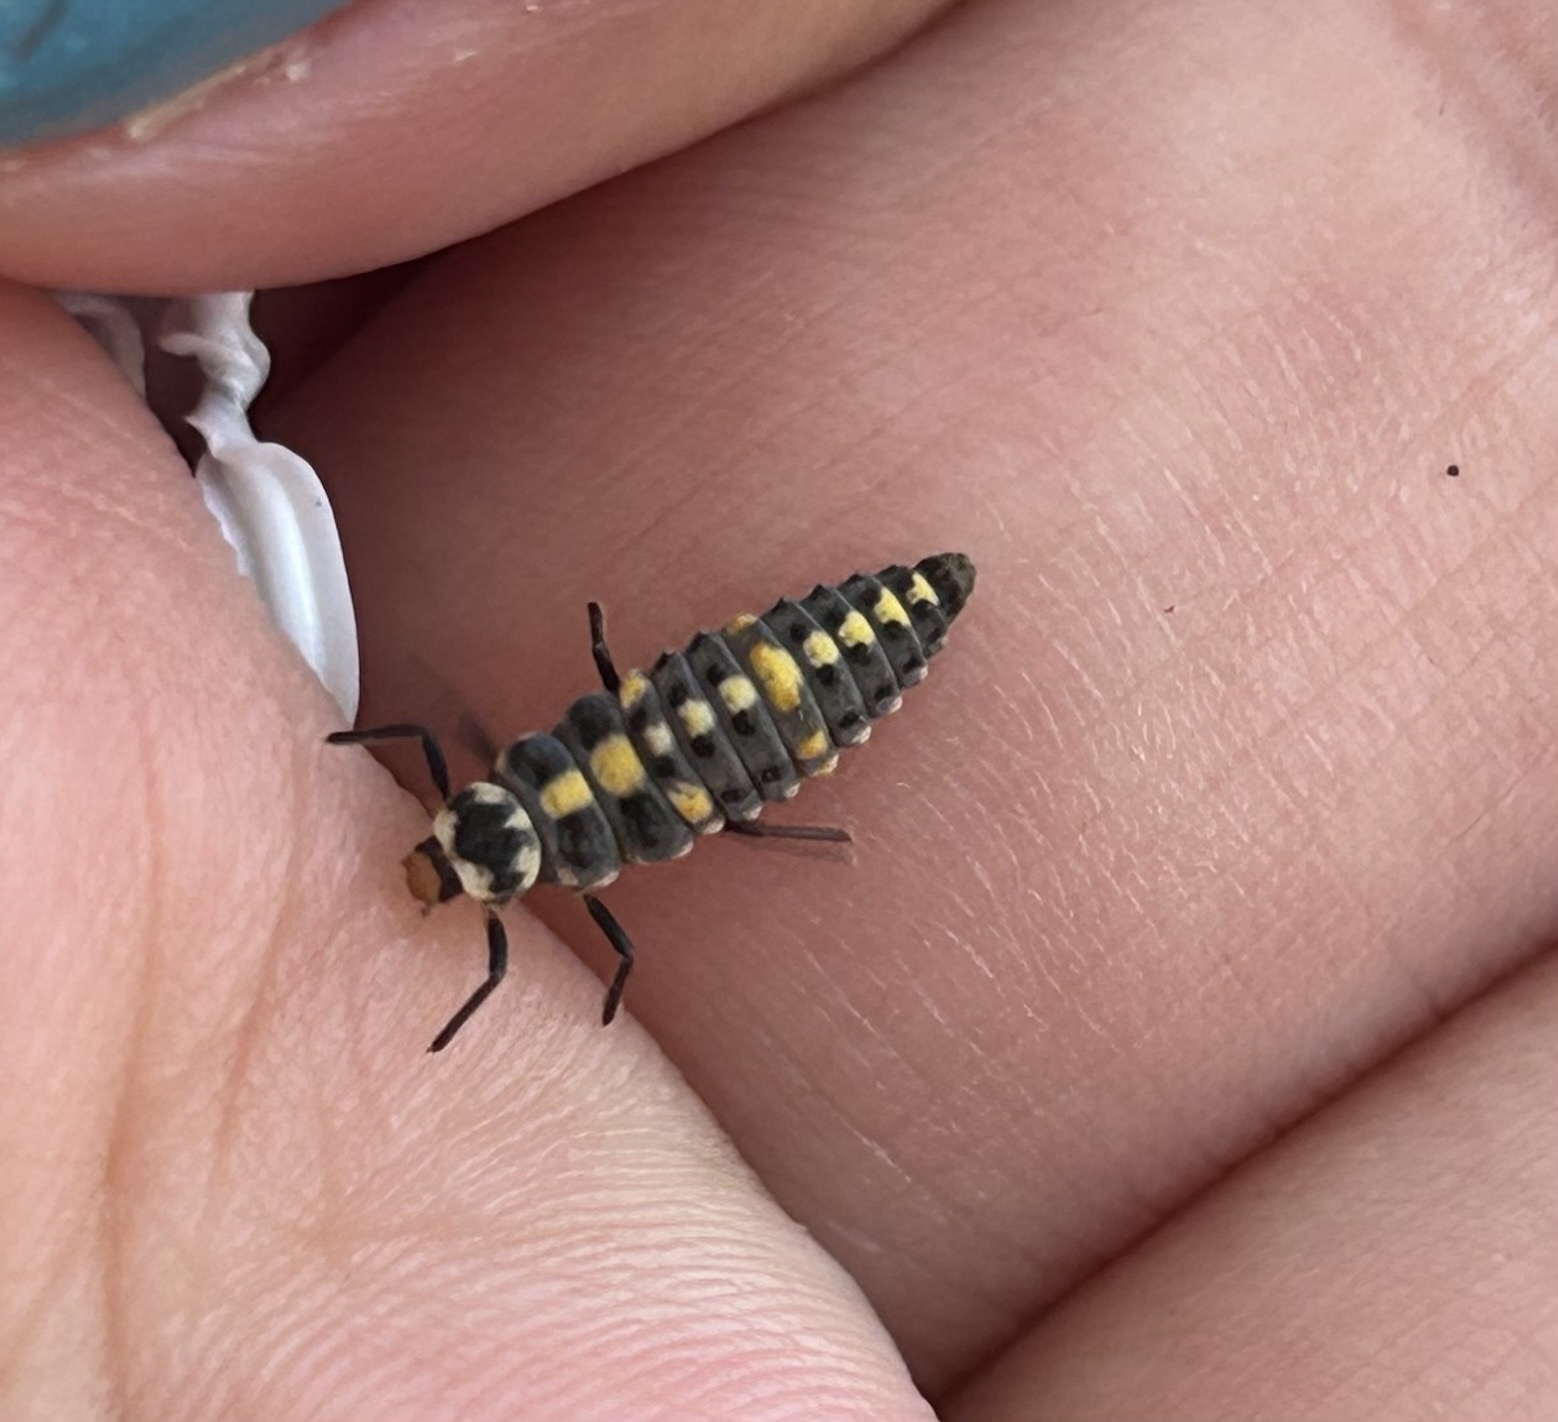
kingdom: Animalia
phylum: Arthropoda
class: Insecta
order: Coleoptera
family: Coccinellidae
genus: Olla
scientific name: Olla v-nigrum
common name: Ashy gray lady beetle
